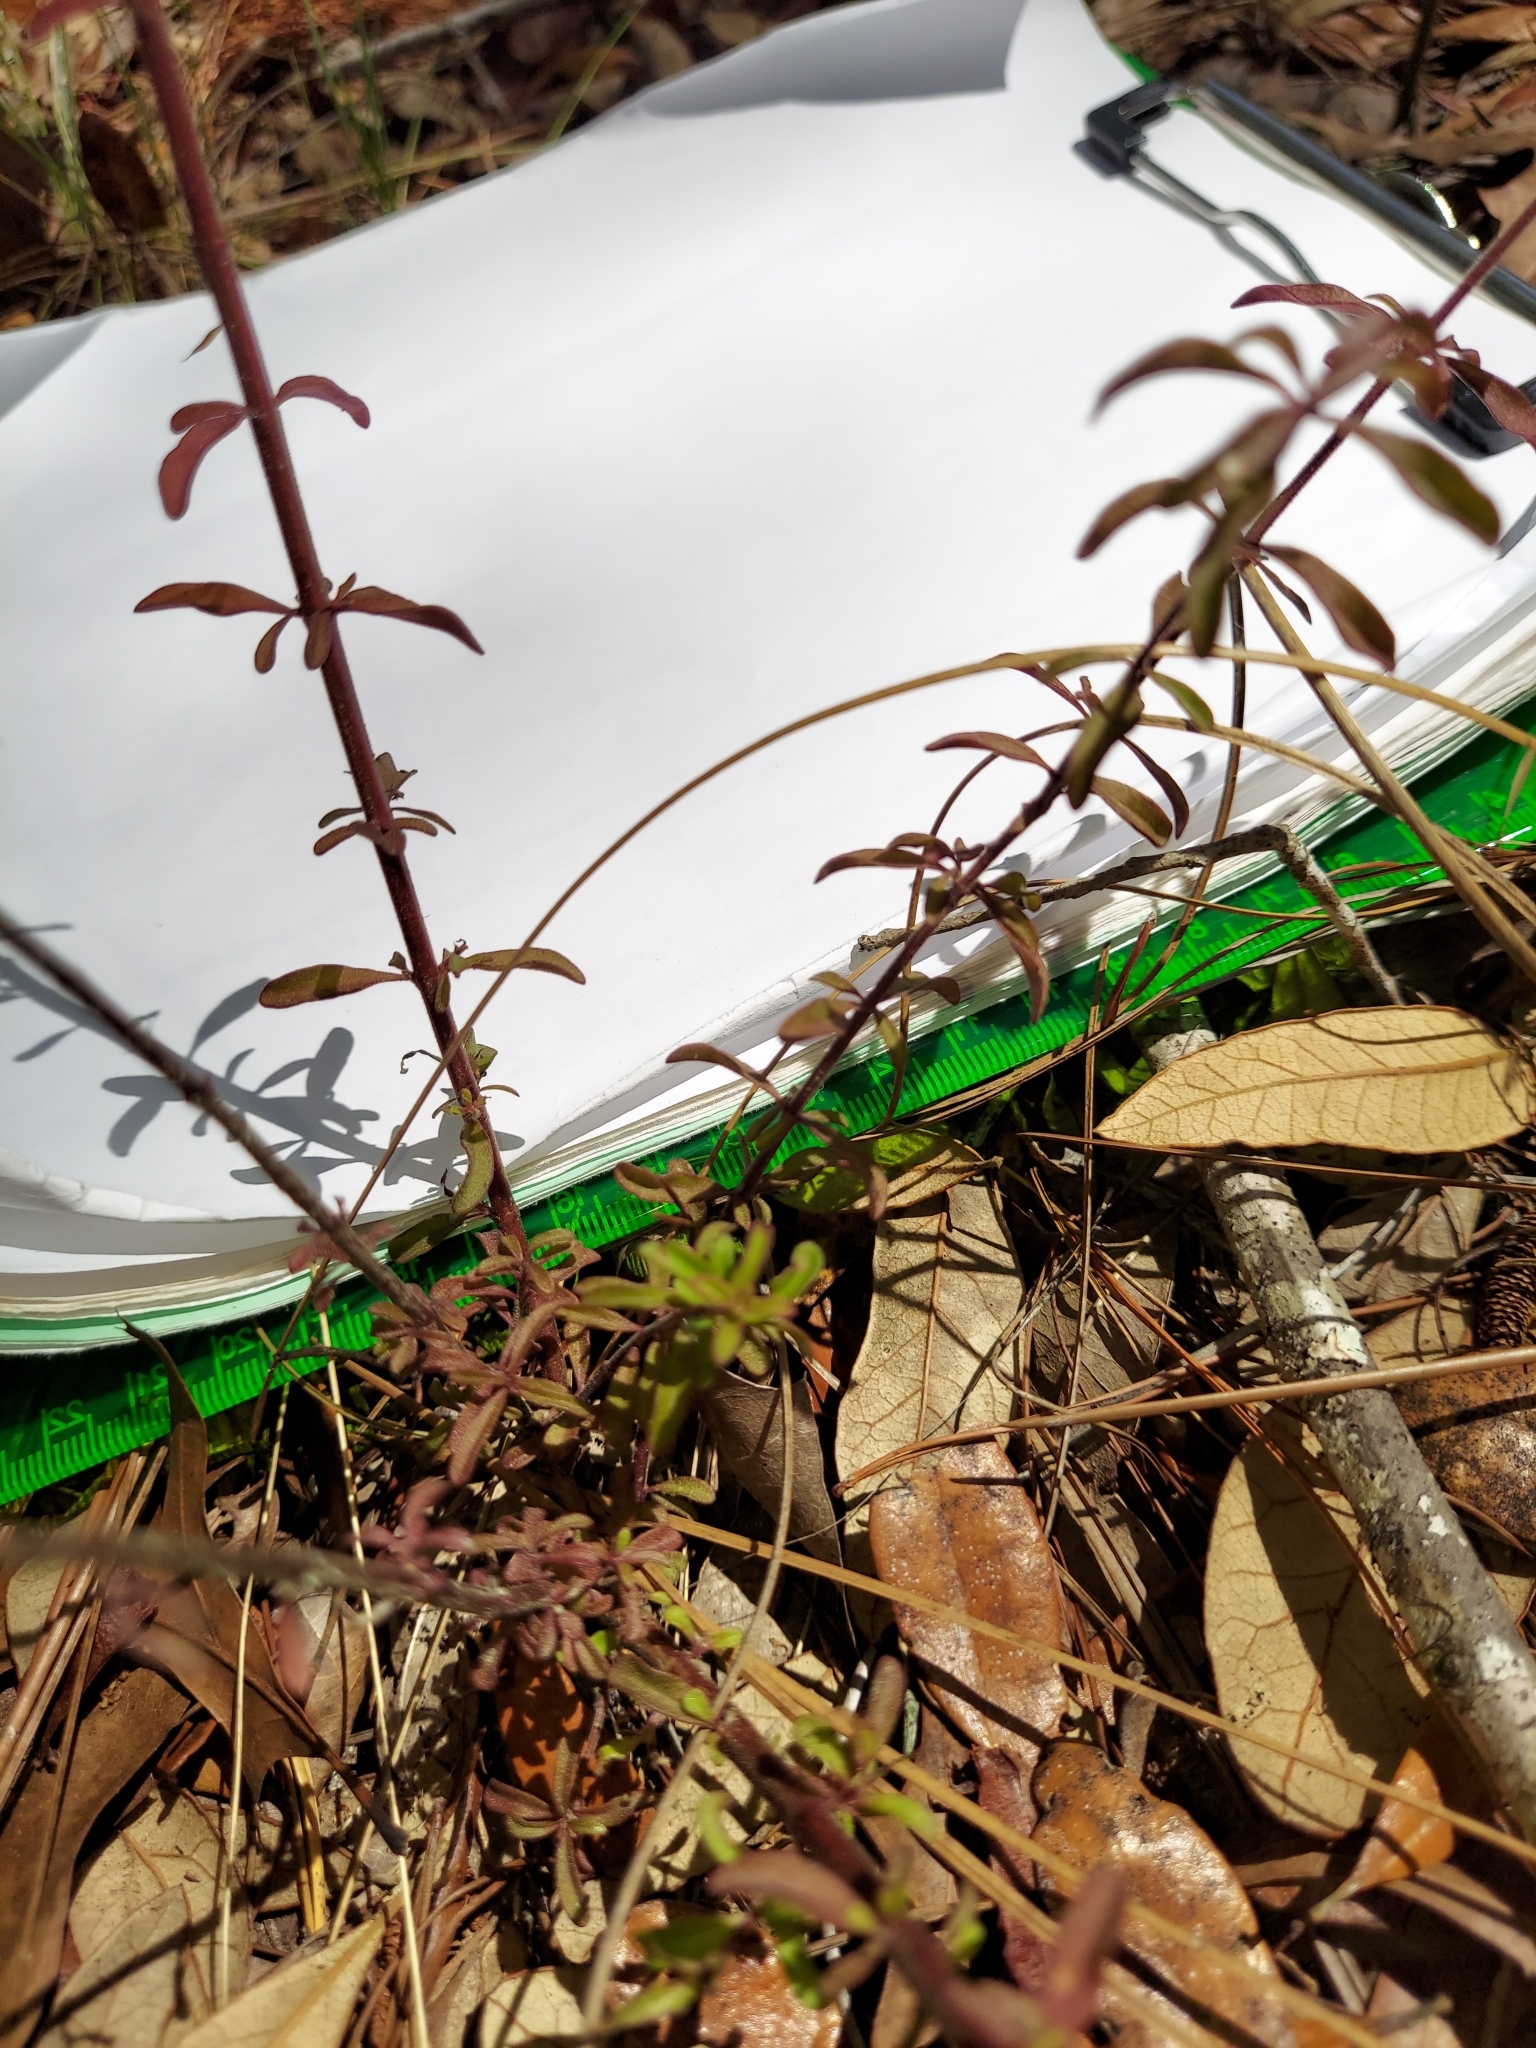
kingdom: Plantae
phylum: Tracheophyta
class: Magnoliopsida
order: Lamiales
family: Lamiaceae
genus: Trichostema
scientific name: Trichostema microphyllum
